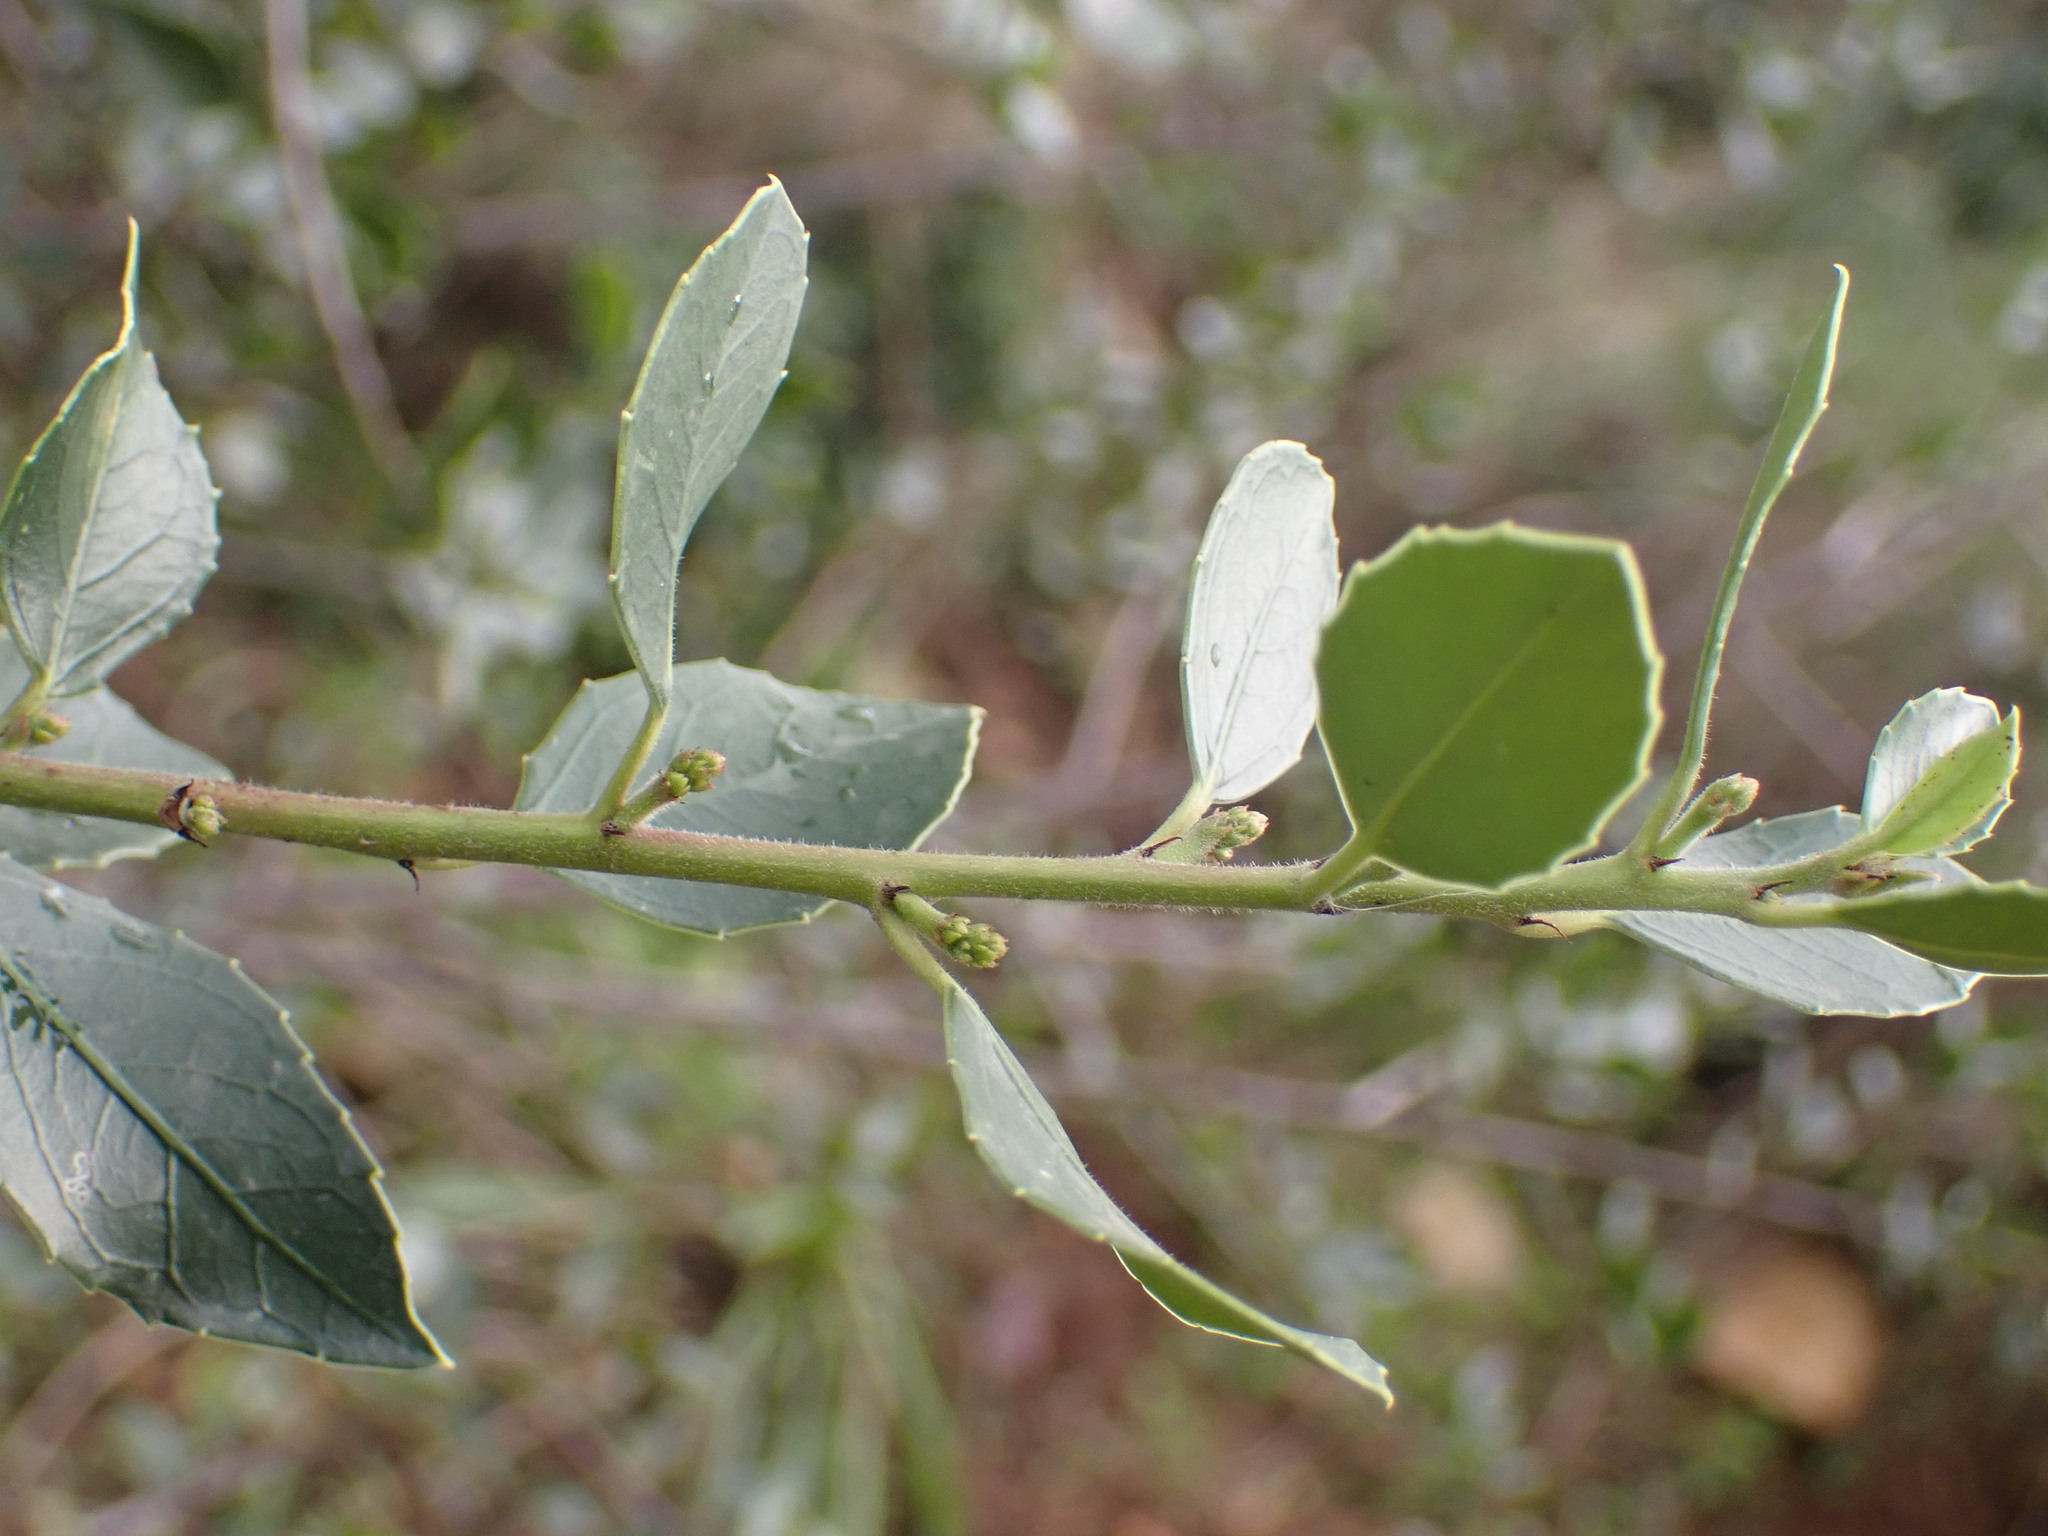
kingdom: Plantae
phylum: Tracheophyta
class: Magnoliopsida
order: Rosales
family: Rhamnaceae
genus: Rhamnus
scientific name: Rhamnus alaternus
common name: Mediterranean buckthorn
